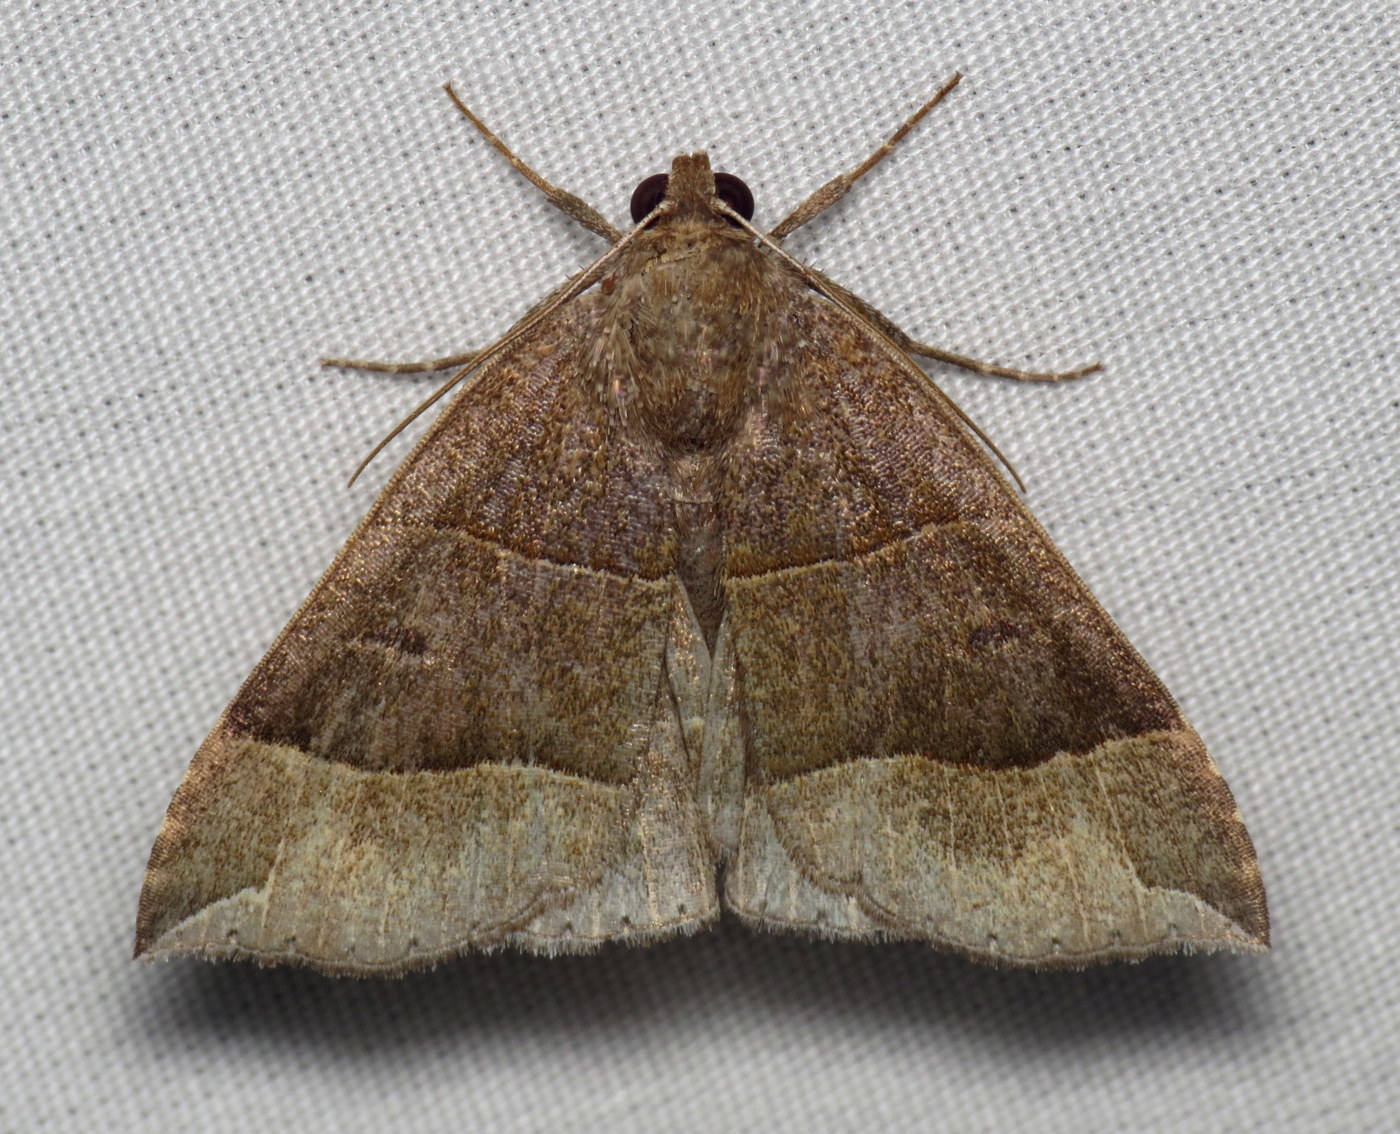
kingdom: Animalia
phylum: Arthropoda
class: Insecta
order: Lepidoptera
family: Erebidae
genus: Parallelia
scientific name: Parallelia bistriaris
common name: Maple looper moth
